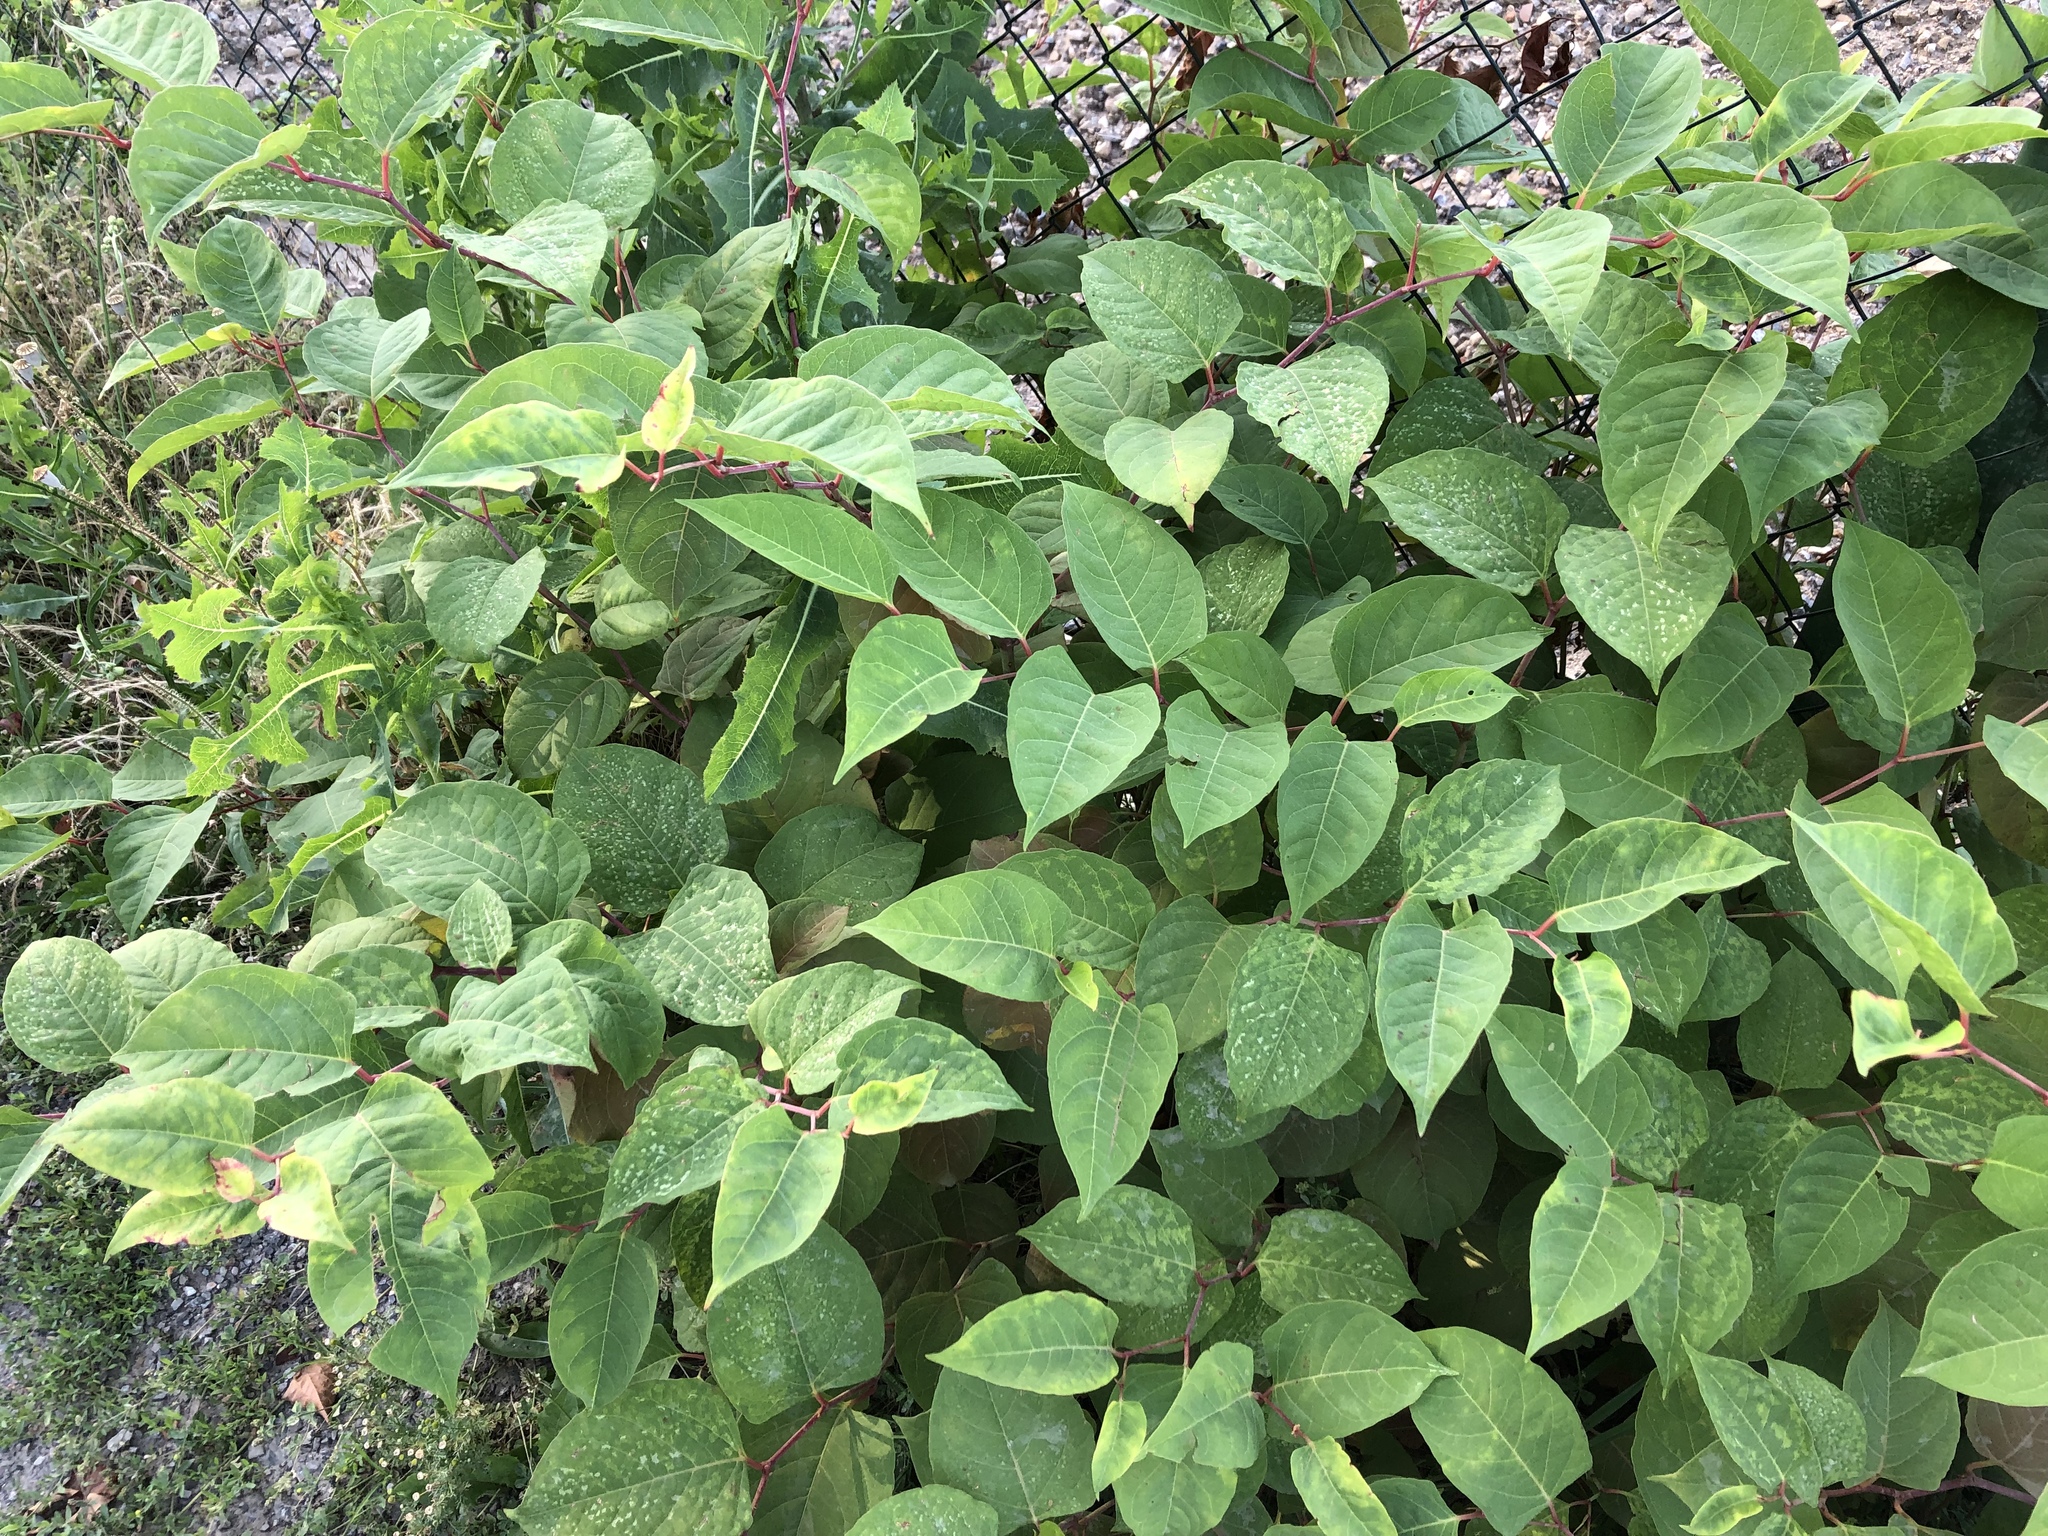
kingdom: Plantae
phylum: Tracheophyta
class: Magnoliopsida
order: Caryophyllales
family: Polygonaceae
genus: Reynoutria
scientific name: Reynoutria japonica
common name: Japanese knotweed
